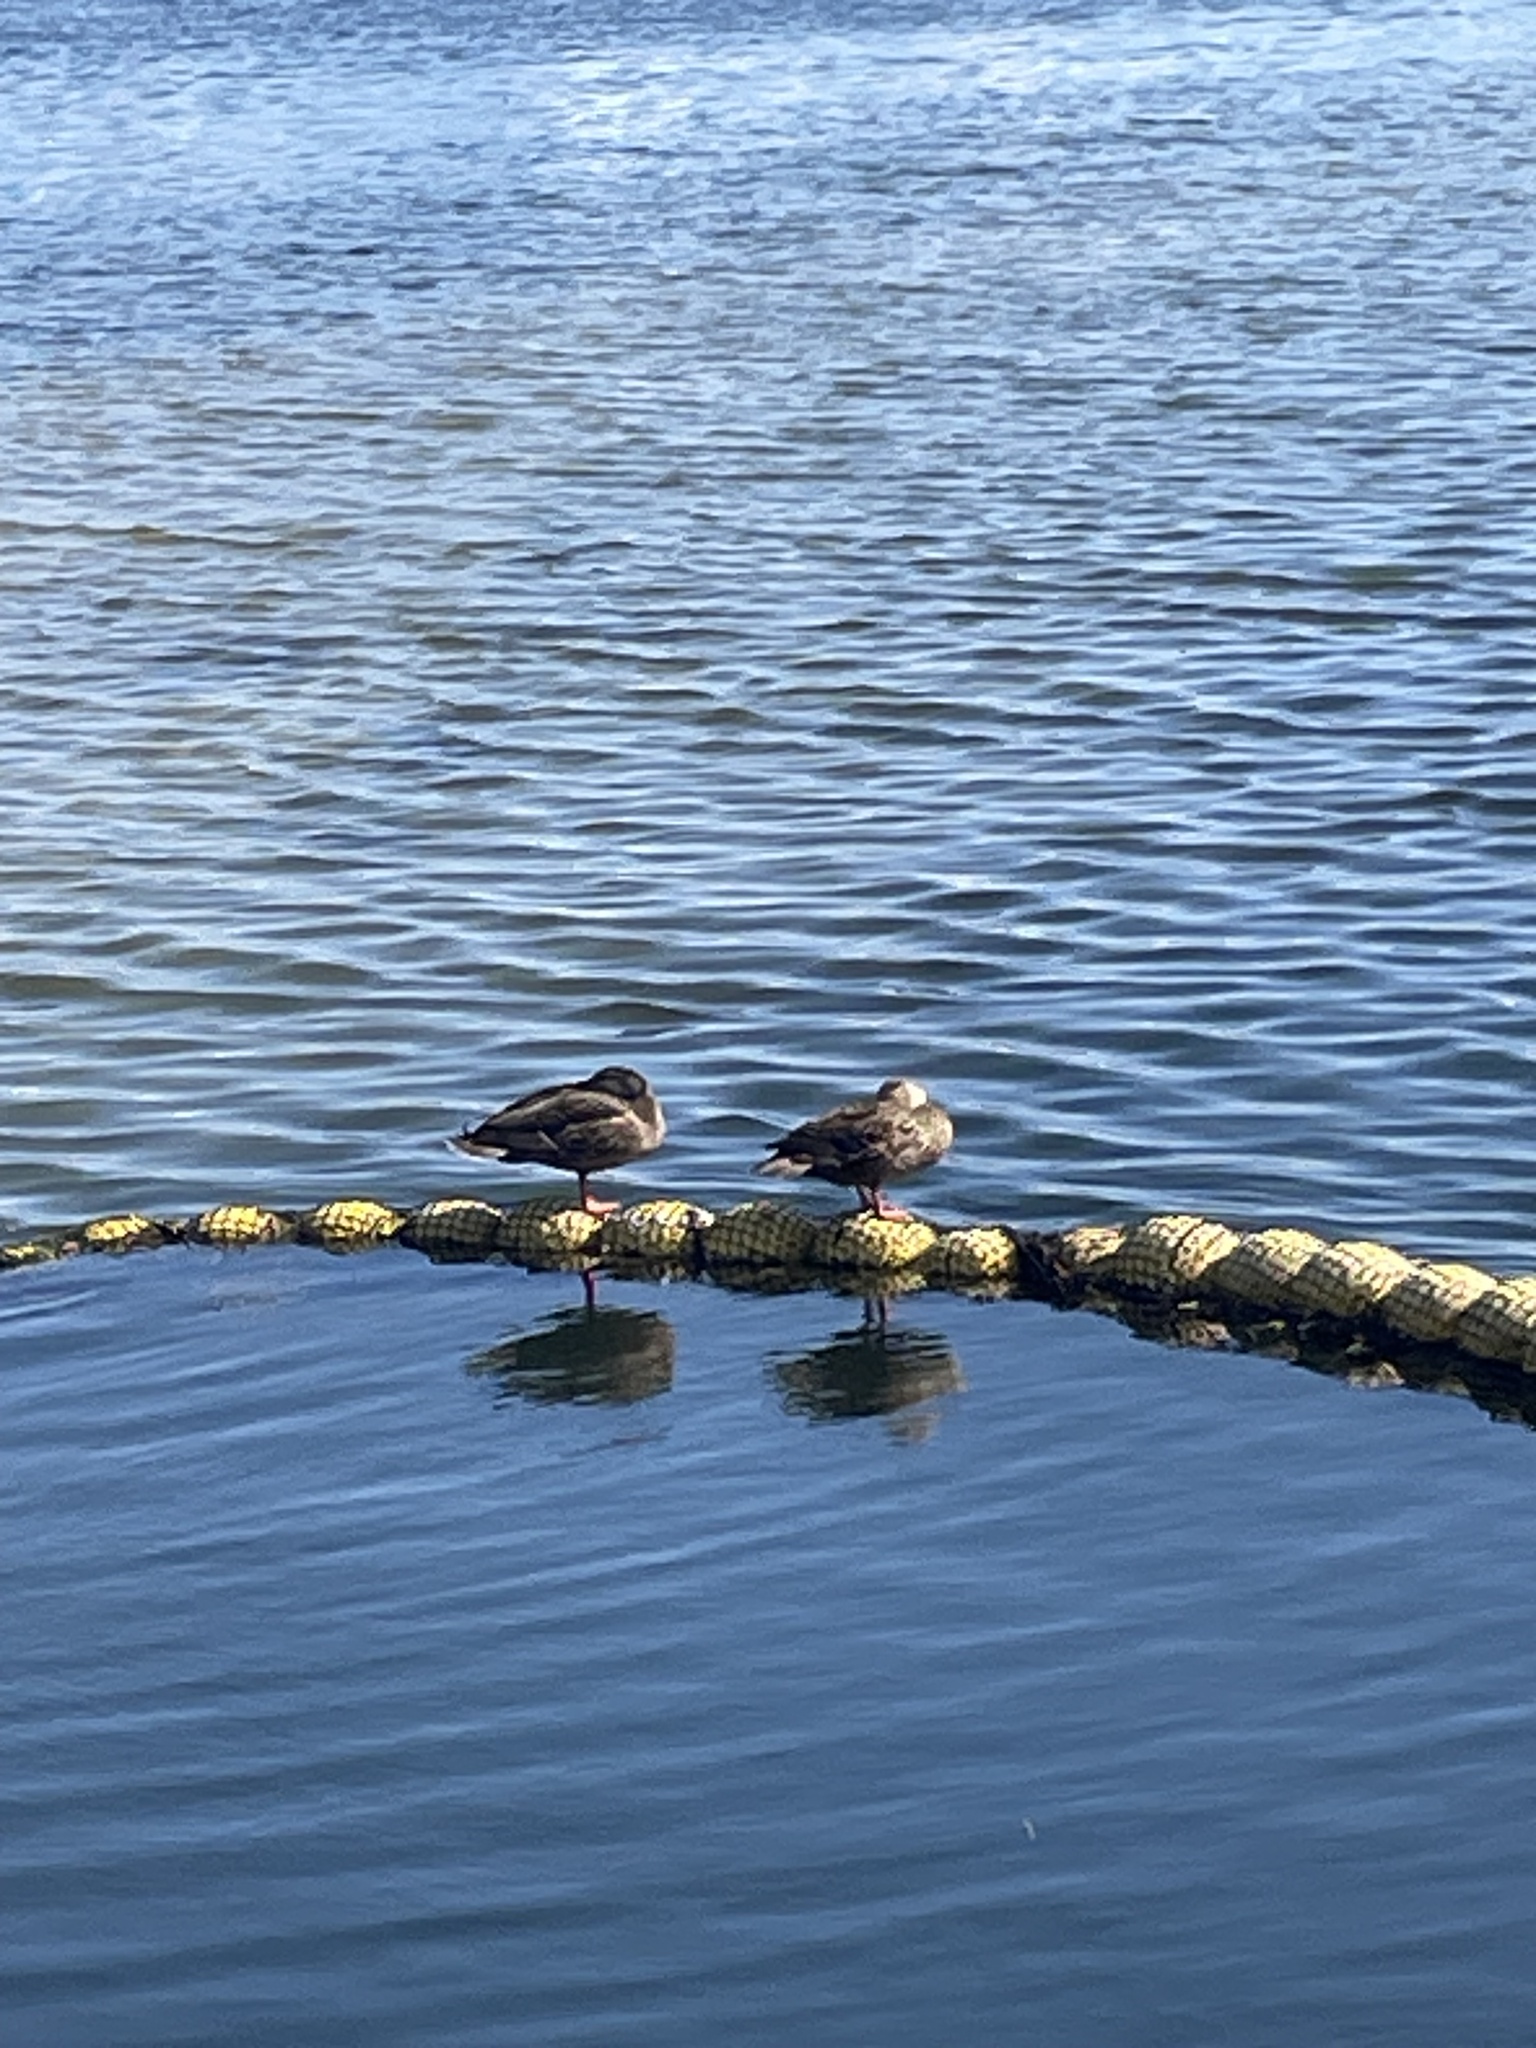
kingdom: Animalia
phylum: Chordata
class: Aves
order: Anseriformes
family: Anatidae
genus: Anas
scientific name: Anas
